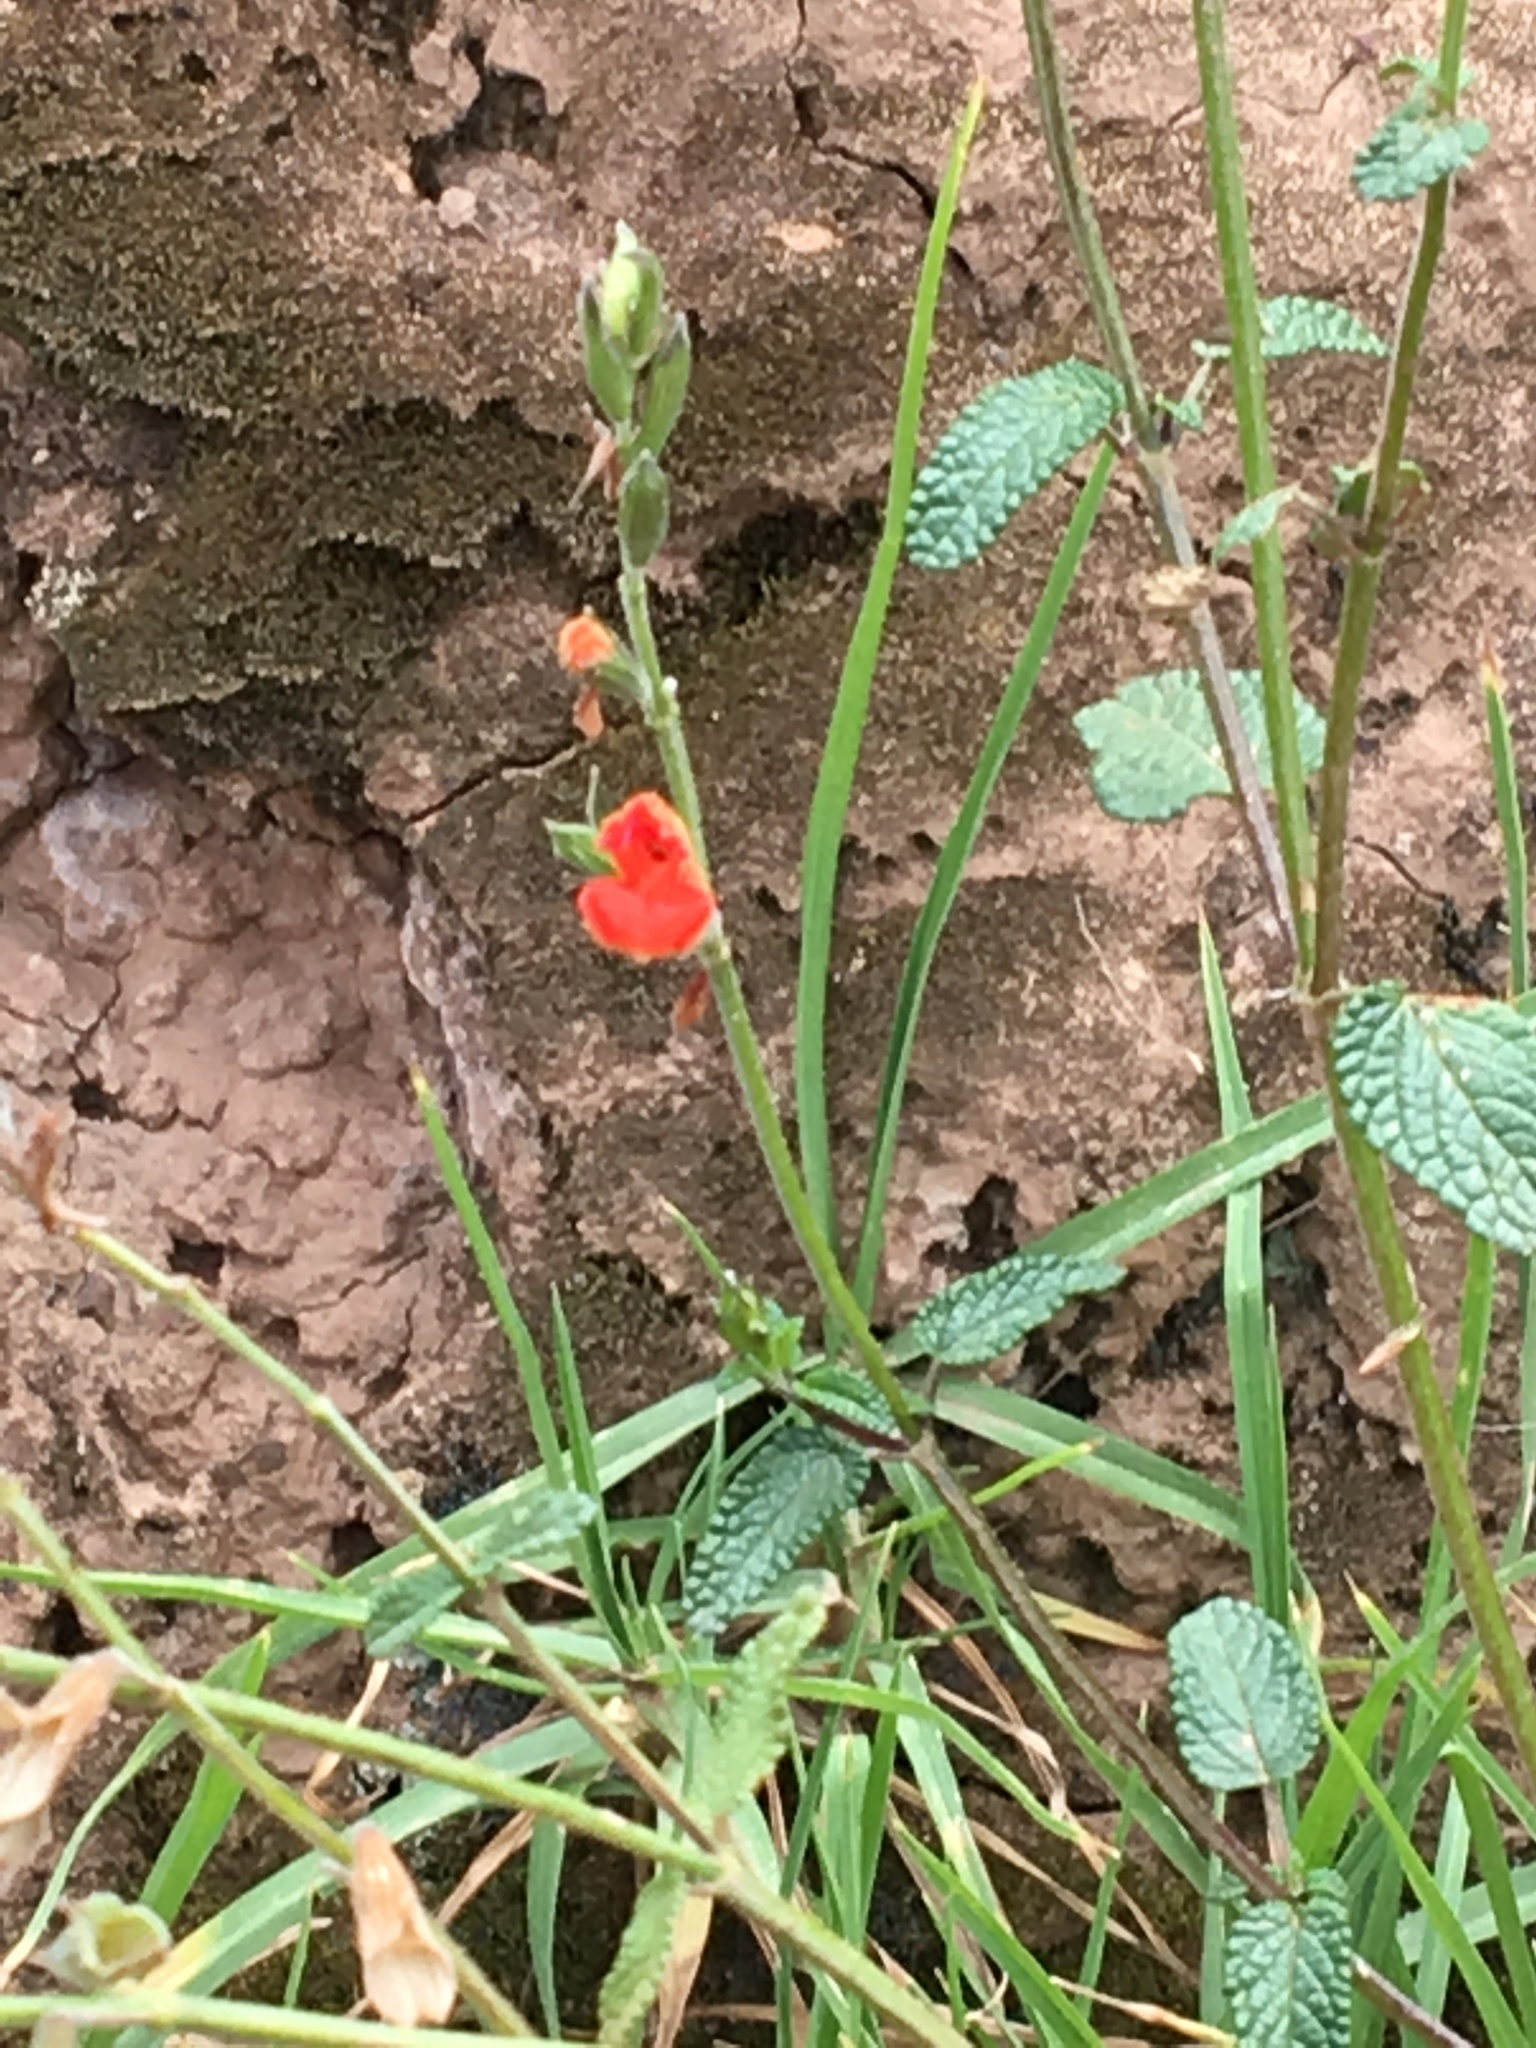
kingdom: Plantae
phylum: Tracheophyta
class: Magnoliopsida
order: Lamiales
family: Lamiaceae
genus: Salvia
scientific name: Salvia oppositiflora
